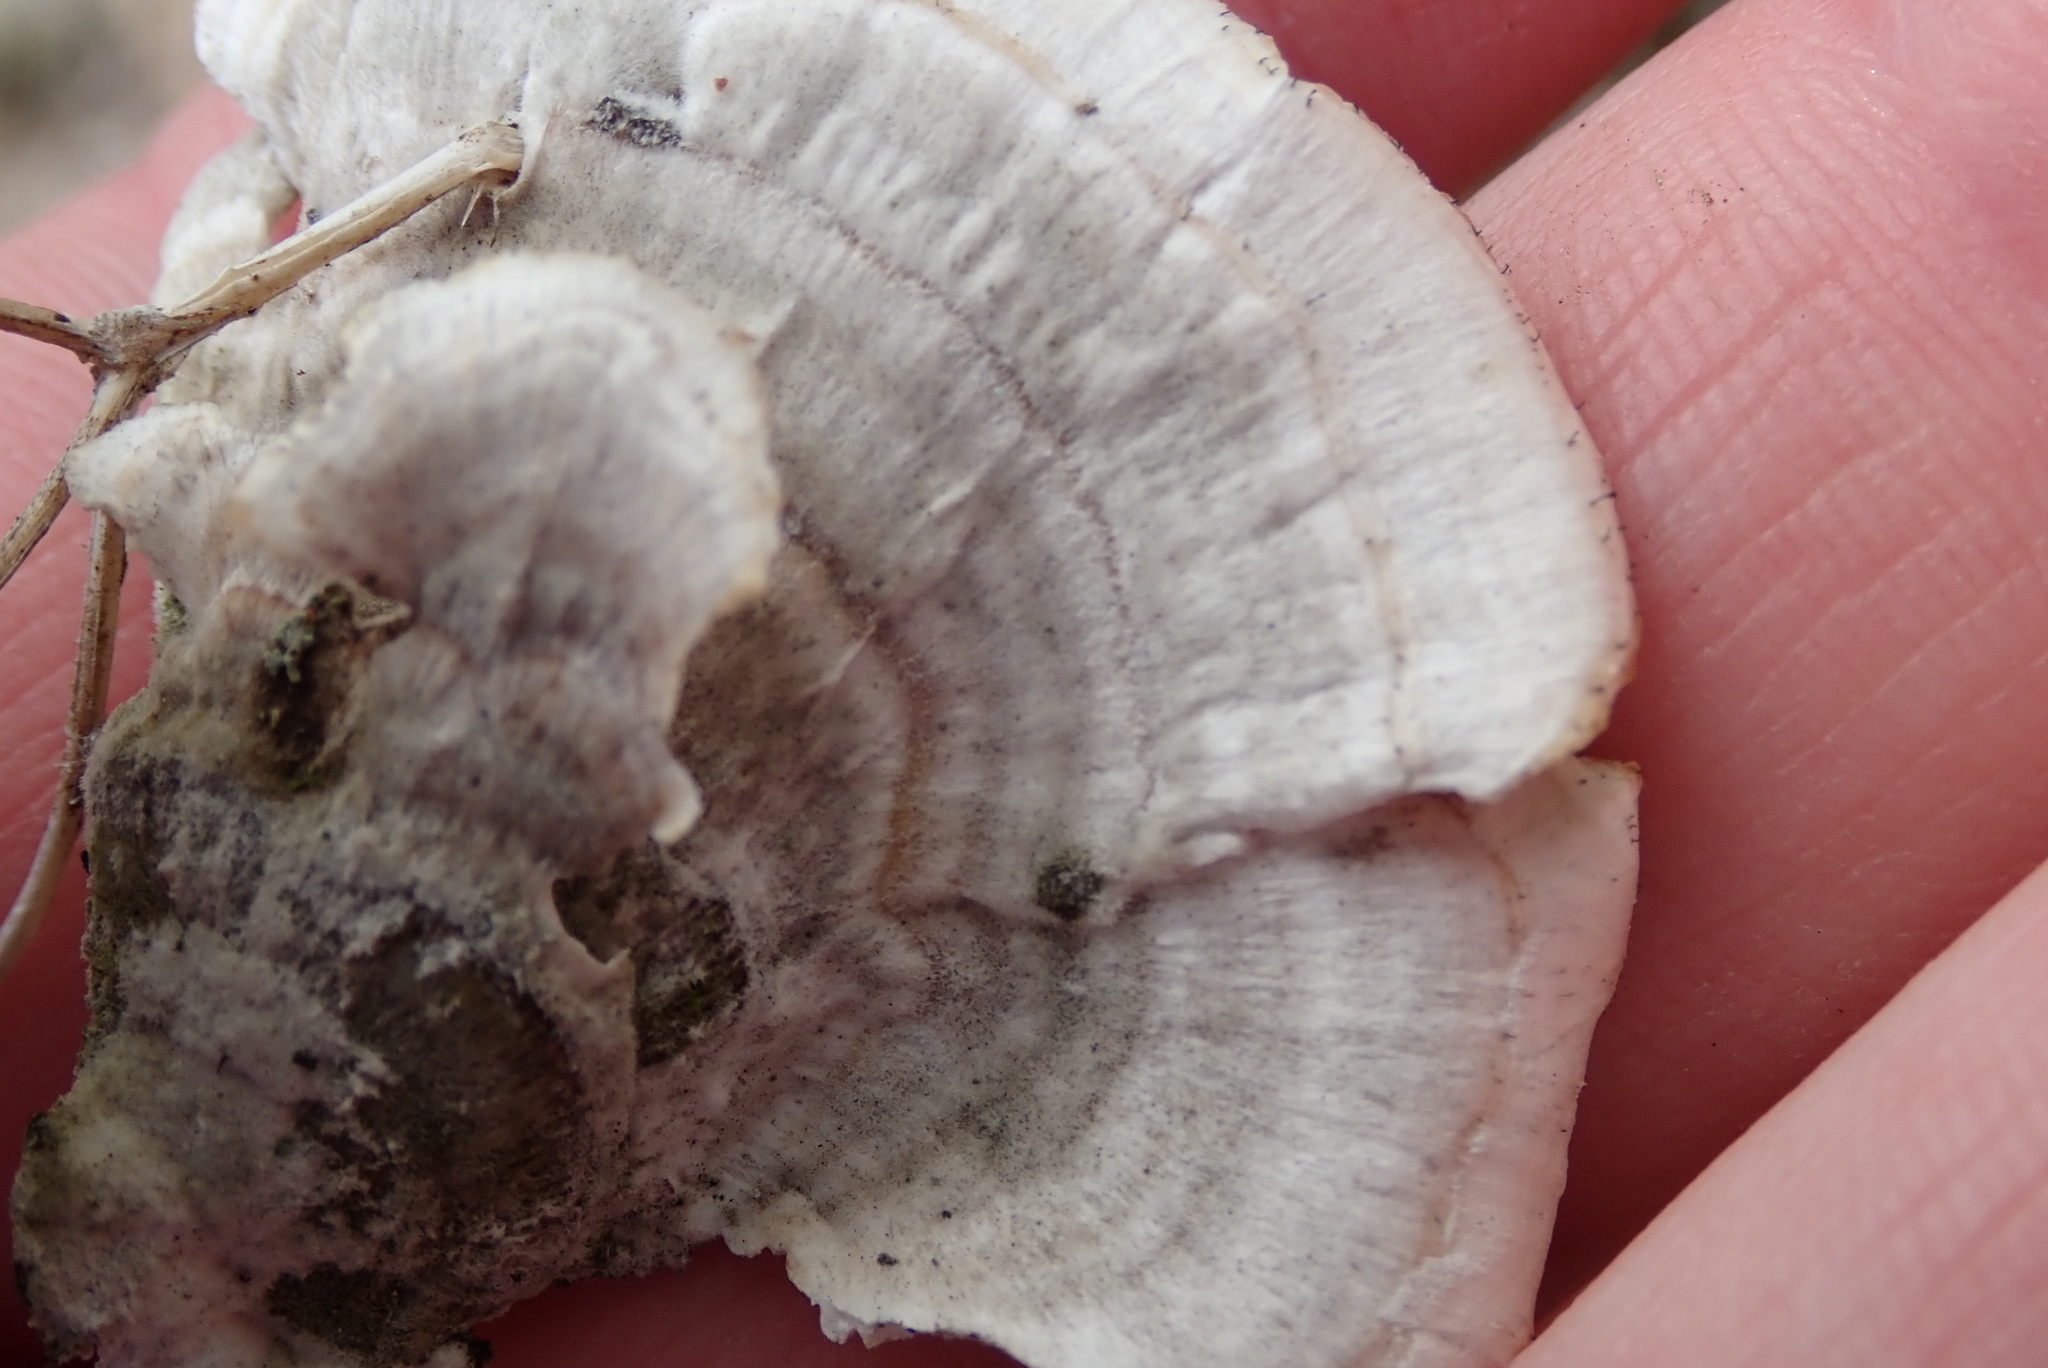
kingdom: Fungi
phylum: Basidiomycota
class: Agaricomycetes
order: Hymenochaetales
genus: Trichaptum
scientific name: Trichaptum biforme
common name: Violet-toothed polypore
